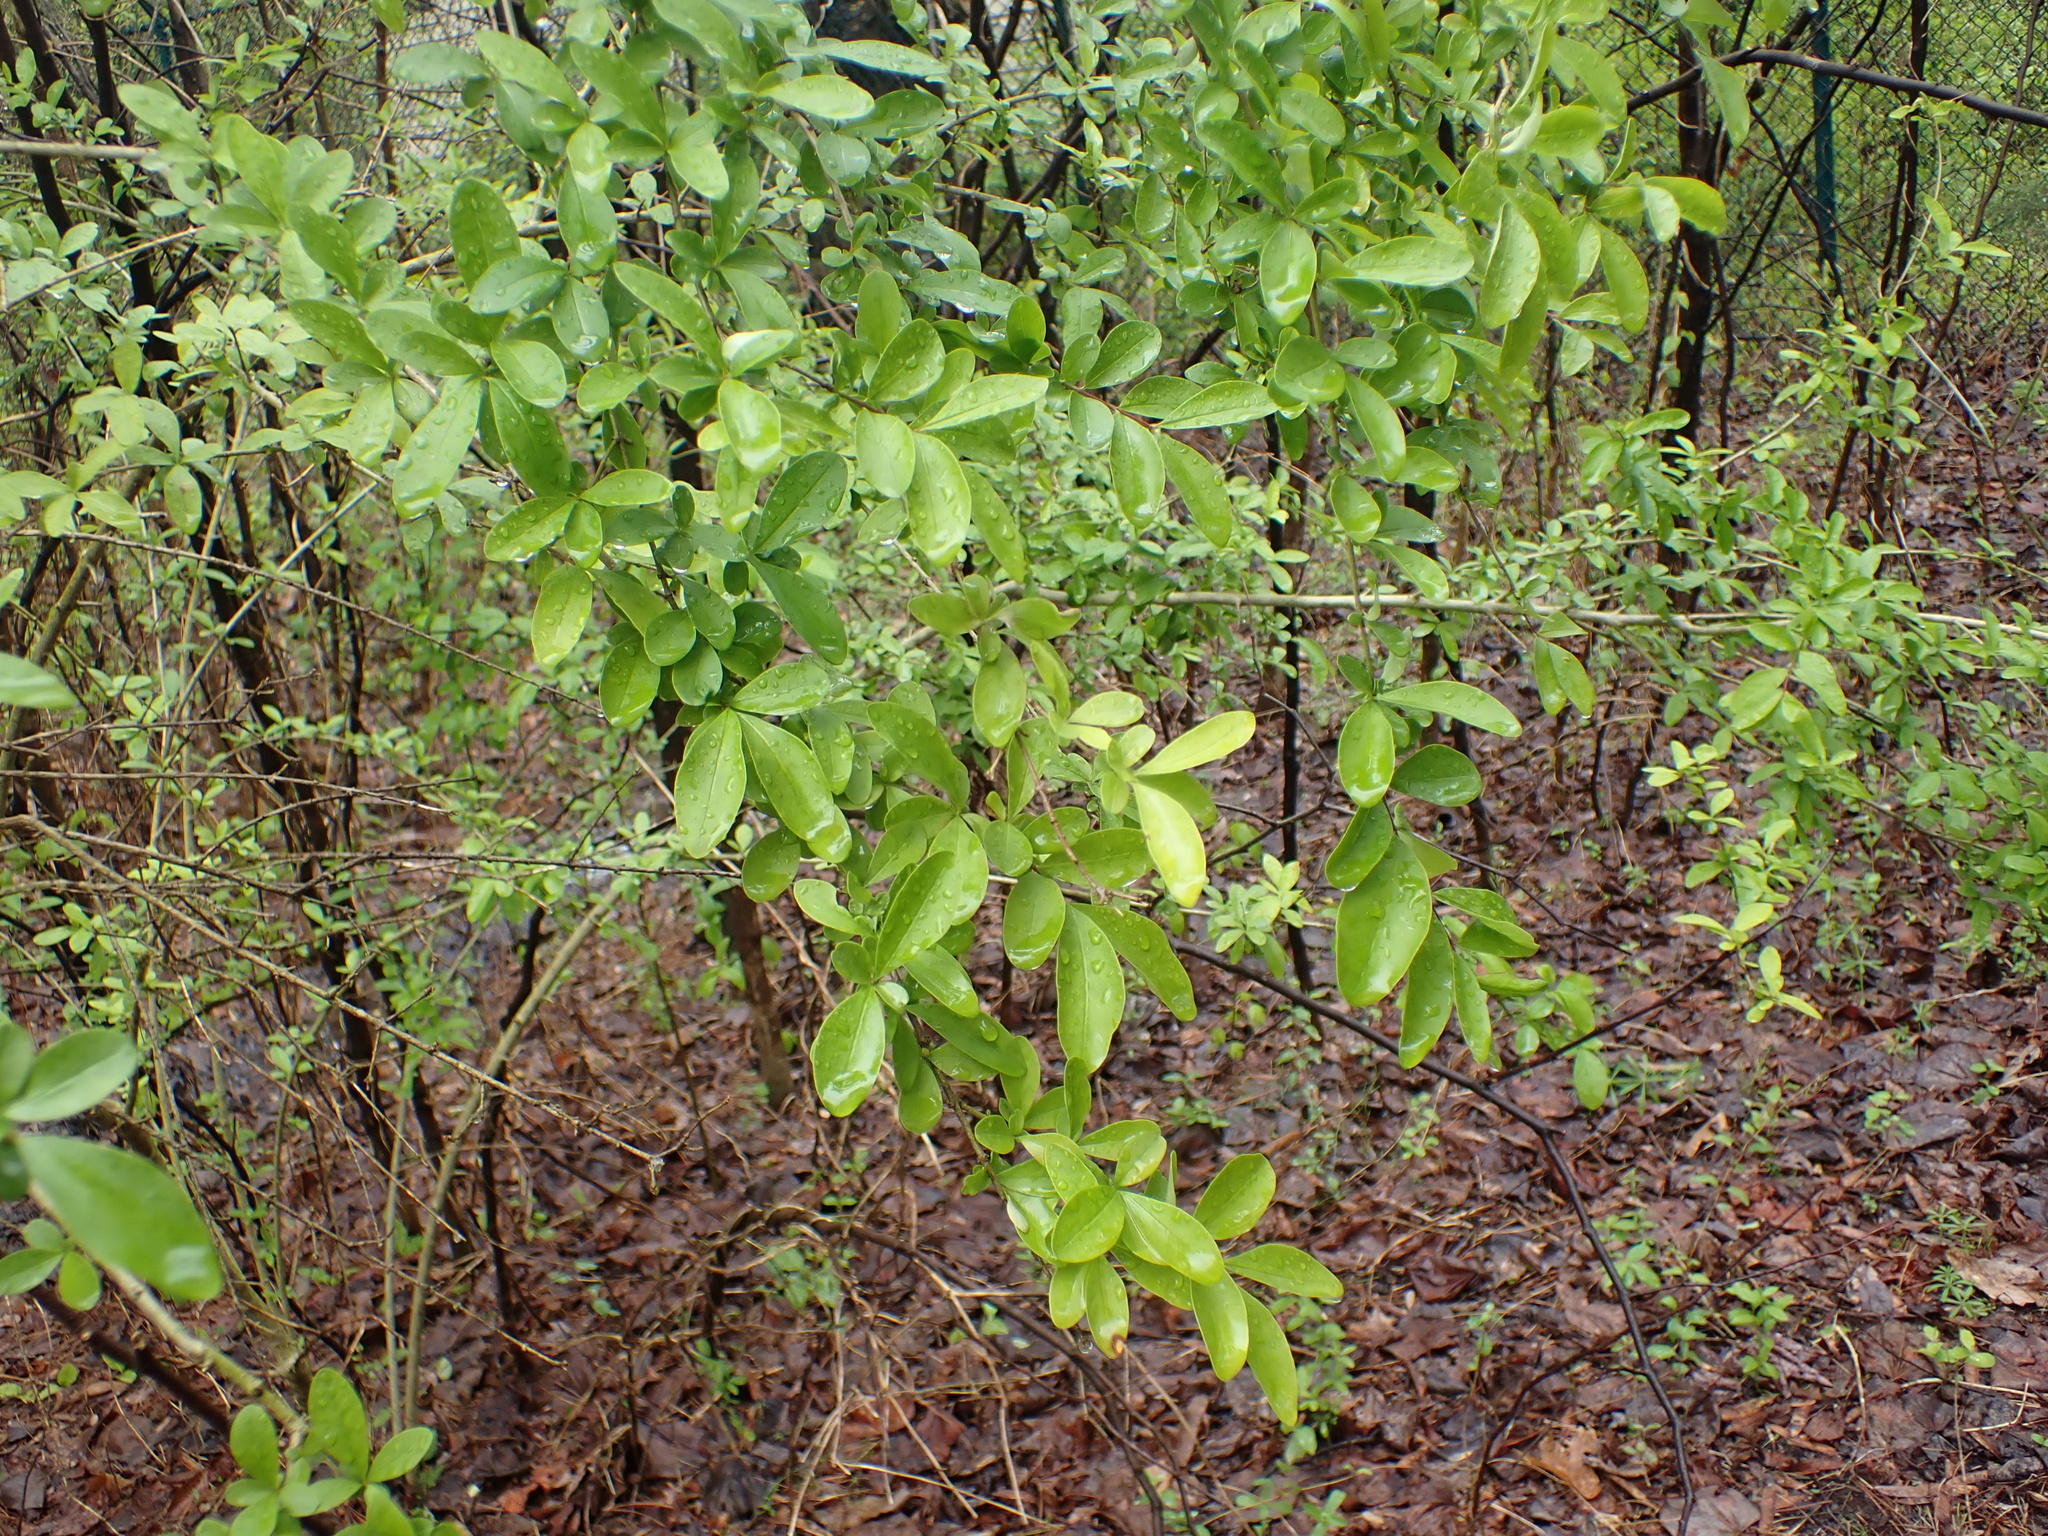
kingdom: Plantae
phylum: Tracheophyta
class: Magnoliopsida
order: Lamiales
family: Oleaceae
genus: Ligustrum
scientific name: Ligustrum
